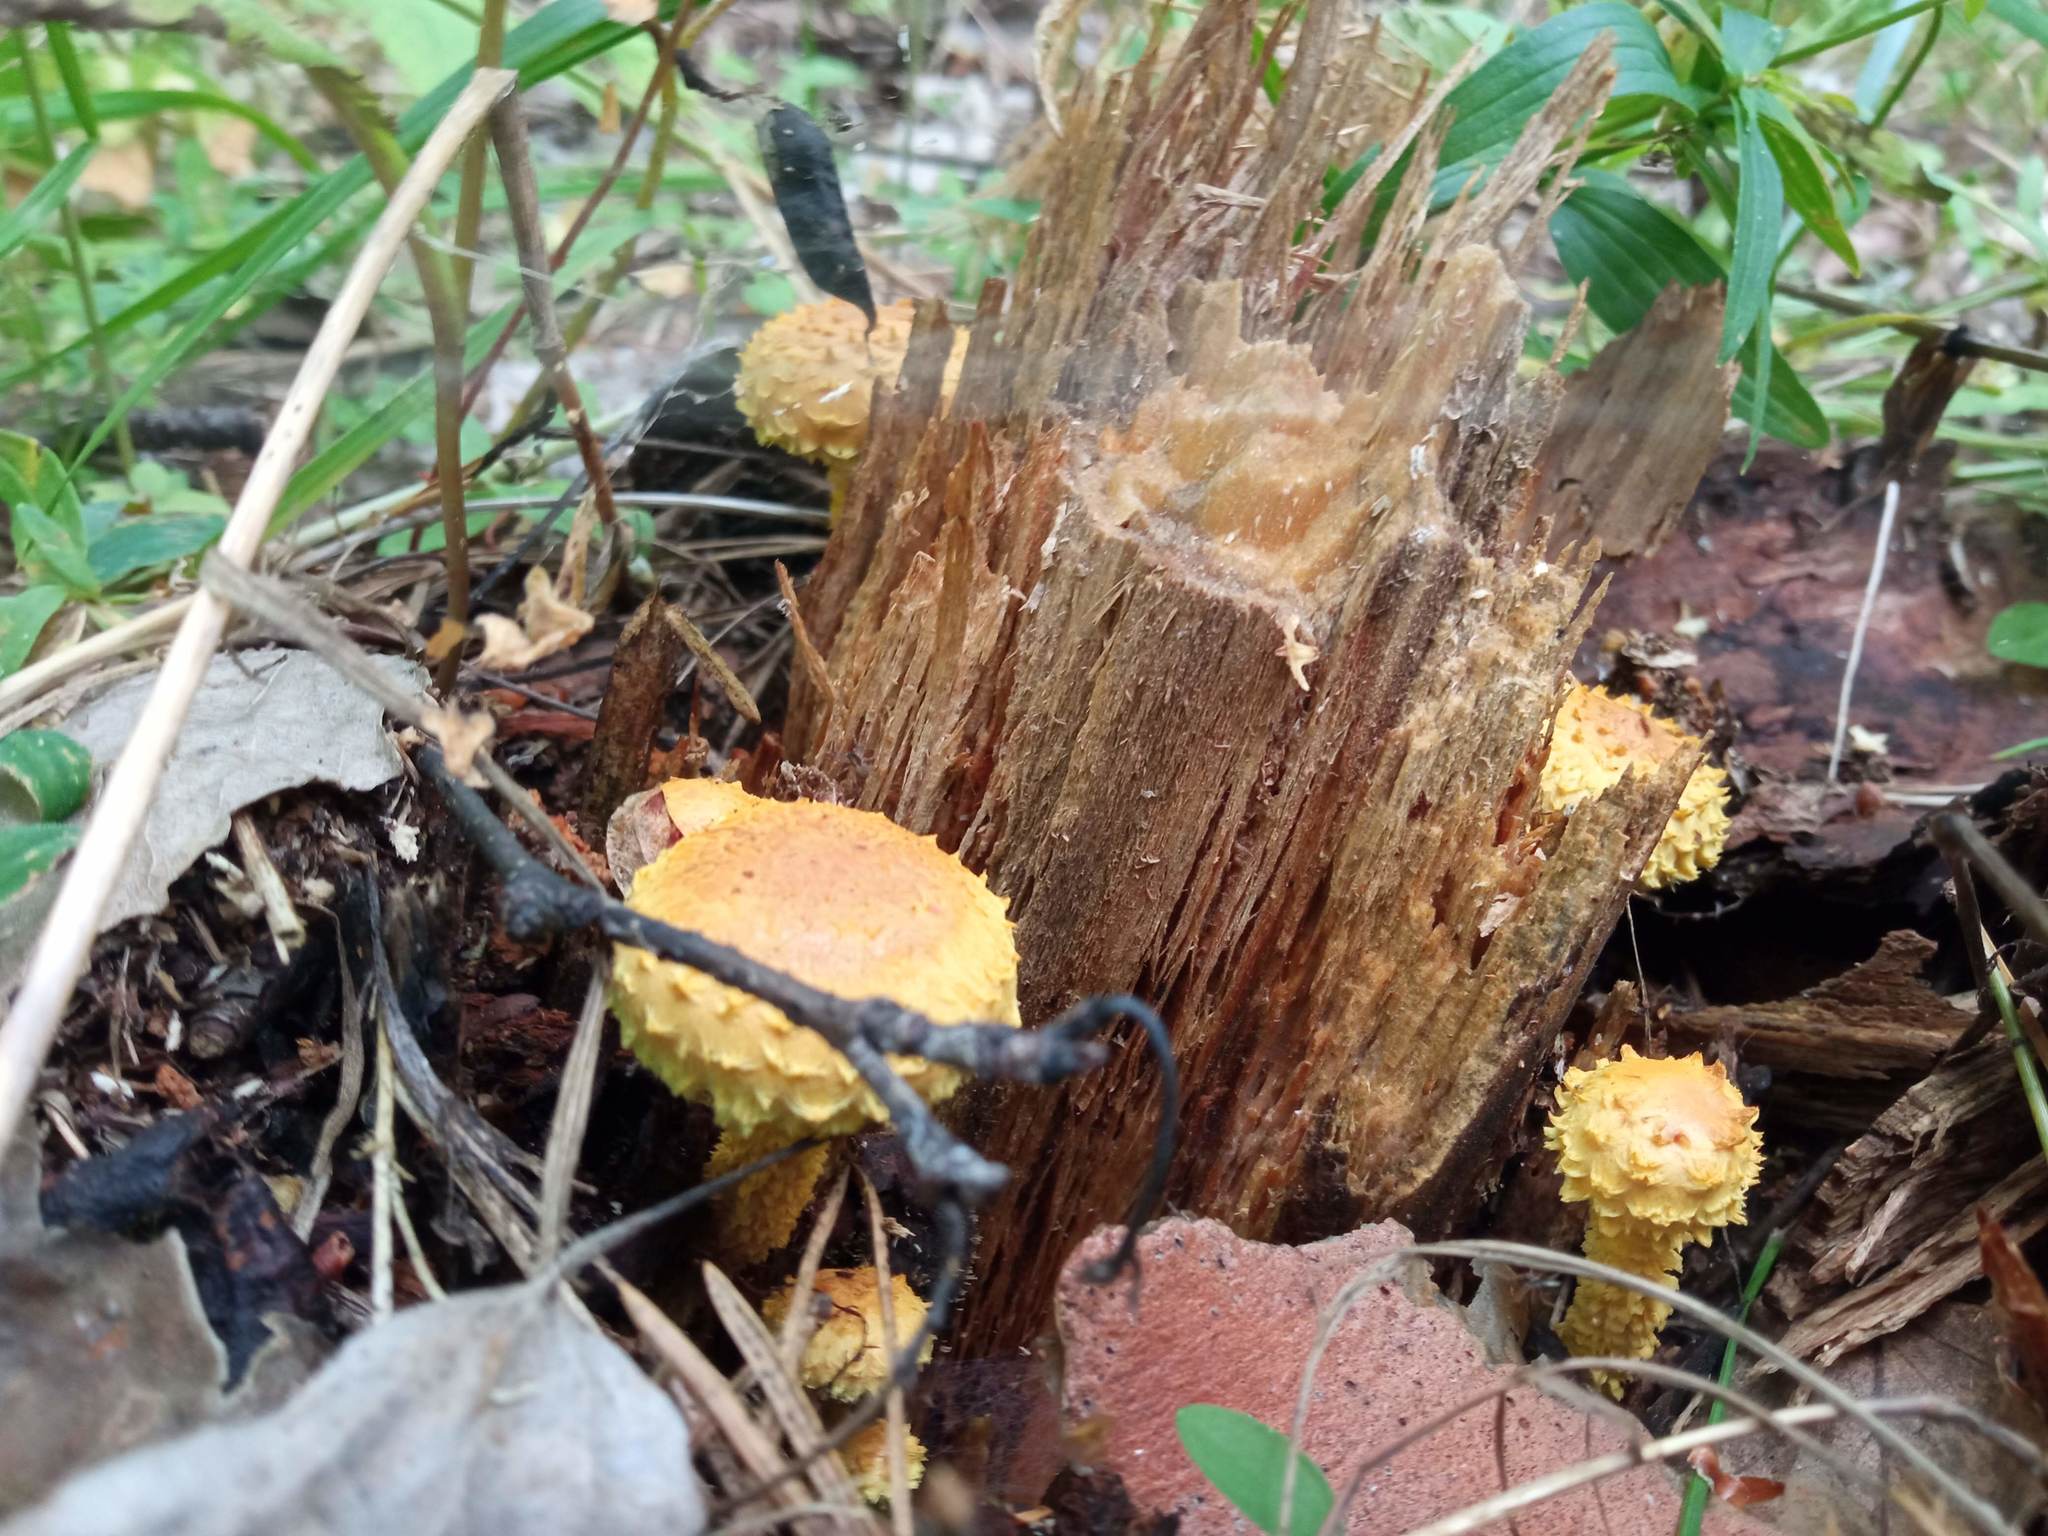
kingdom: Fungi
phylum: Basidiomycota
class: Agaricomycetes
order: Agaricales
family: Strophariaceae
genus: Pholiota
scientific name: Pholiota flammans
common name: Flaming scalycap
